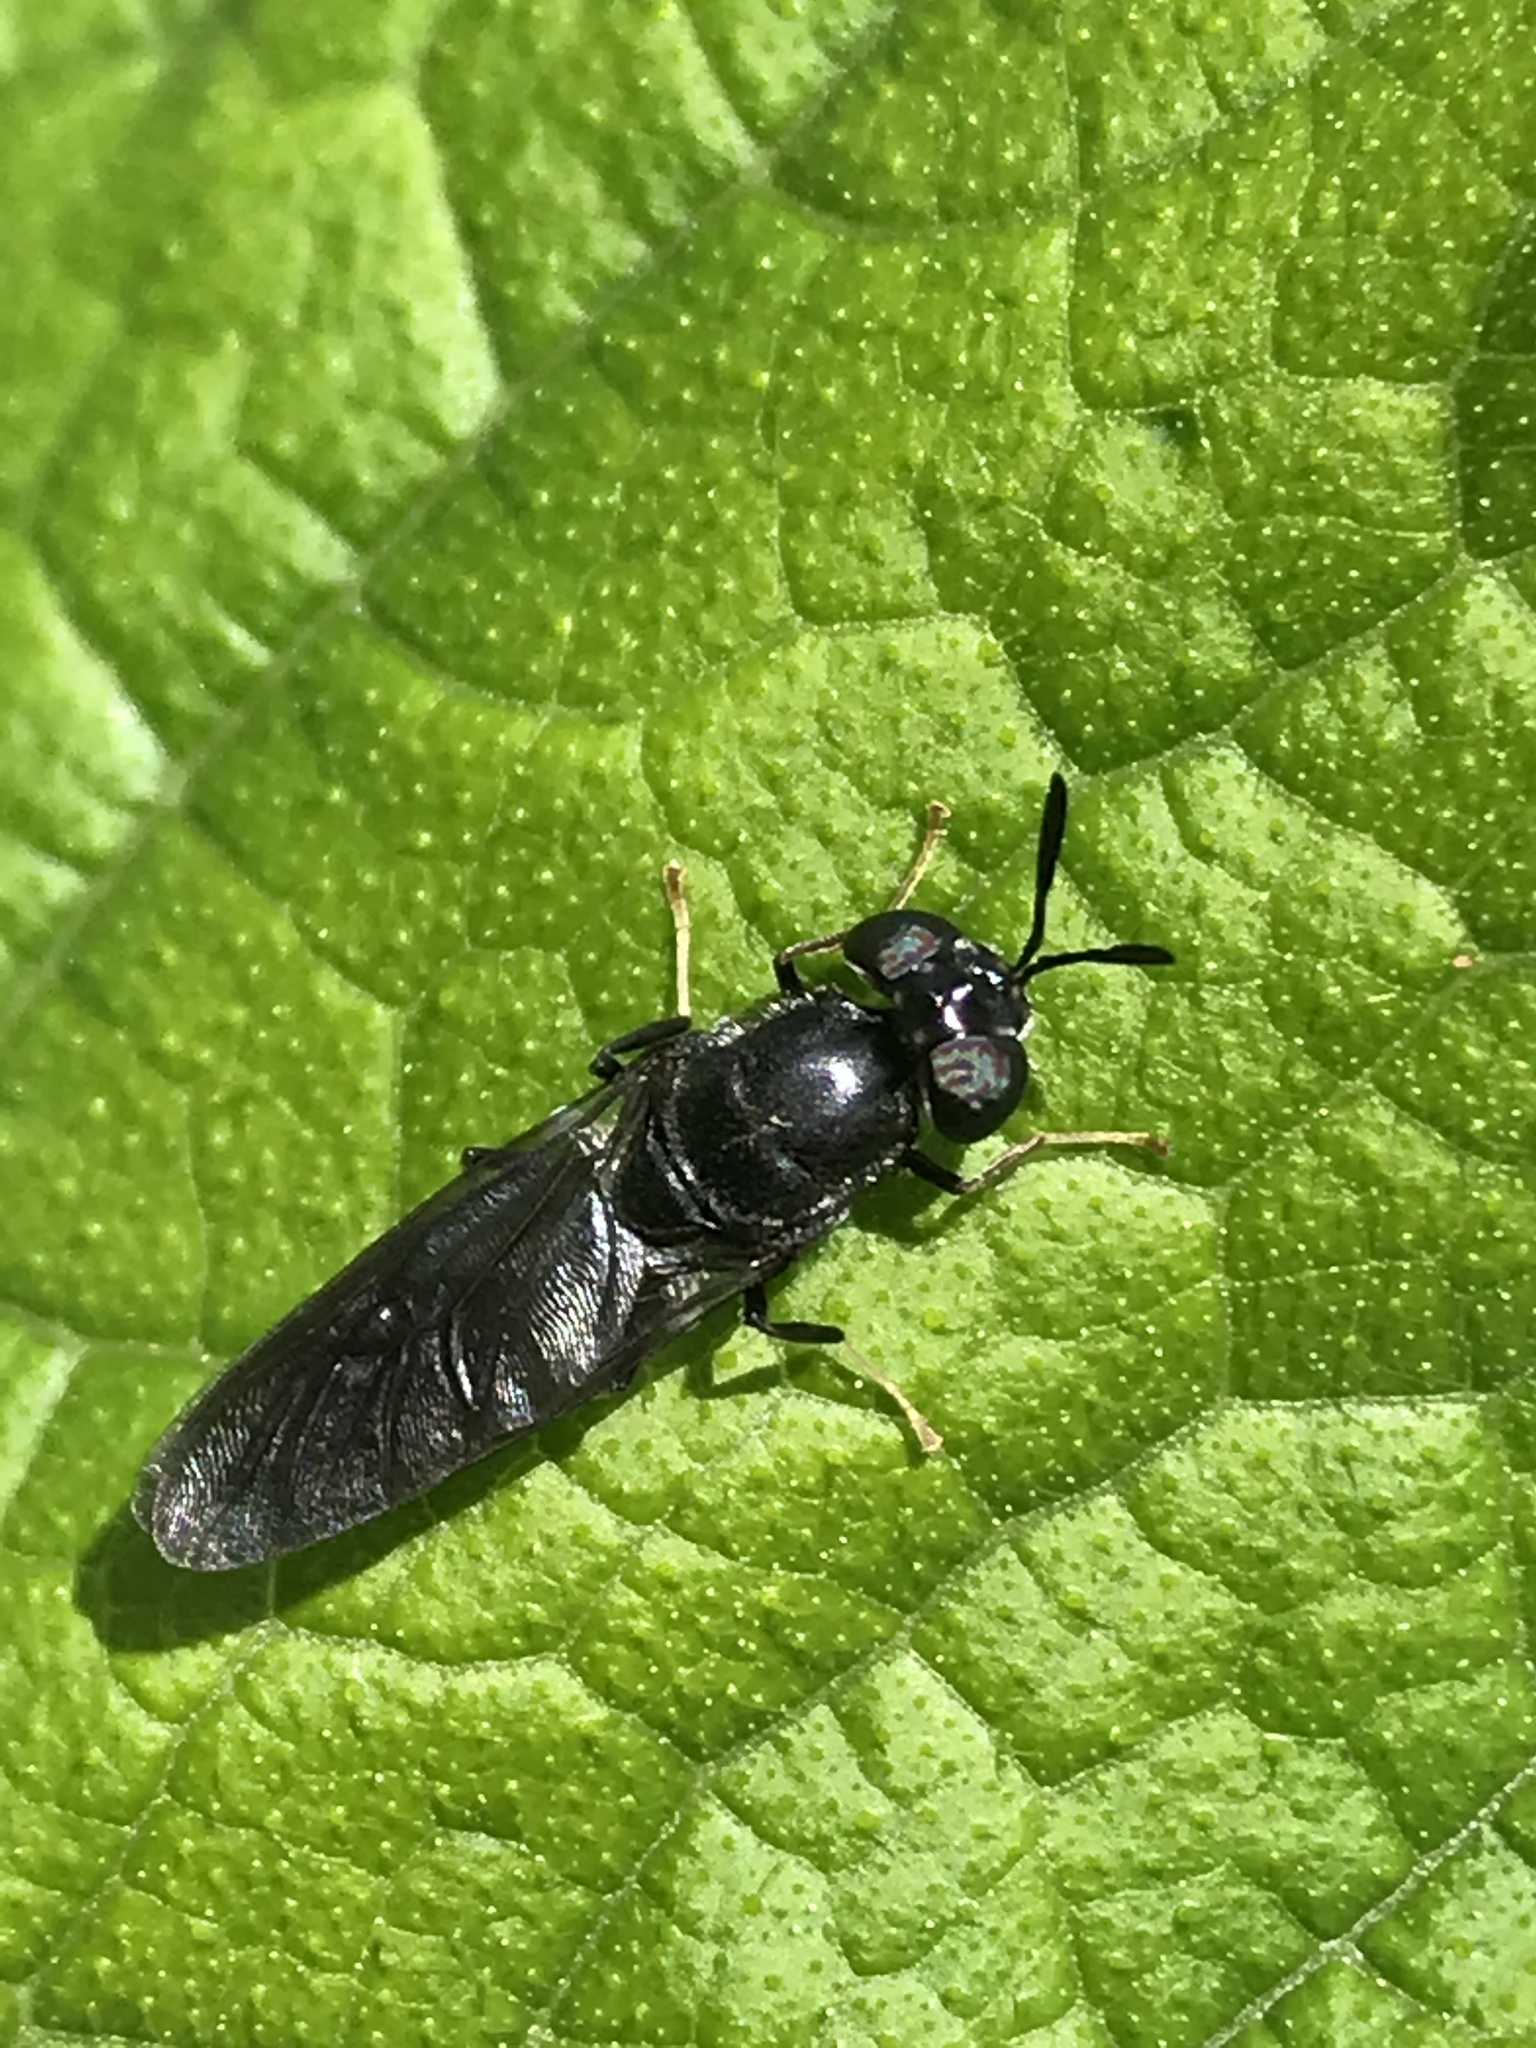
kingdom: Animalia
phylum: Arthropoda
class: Insecta
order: Diptera
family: Stratiomyidae
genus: Hermetia
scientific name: Hermetia illucens
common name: Black soldier fly
